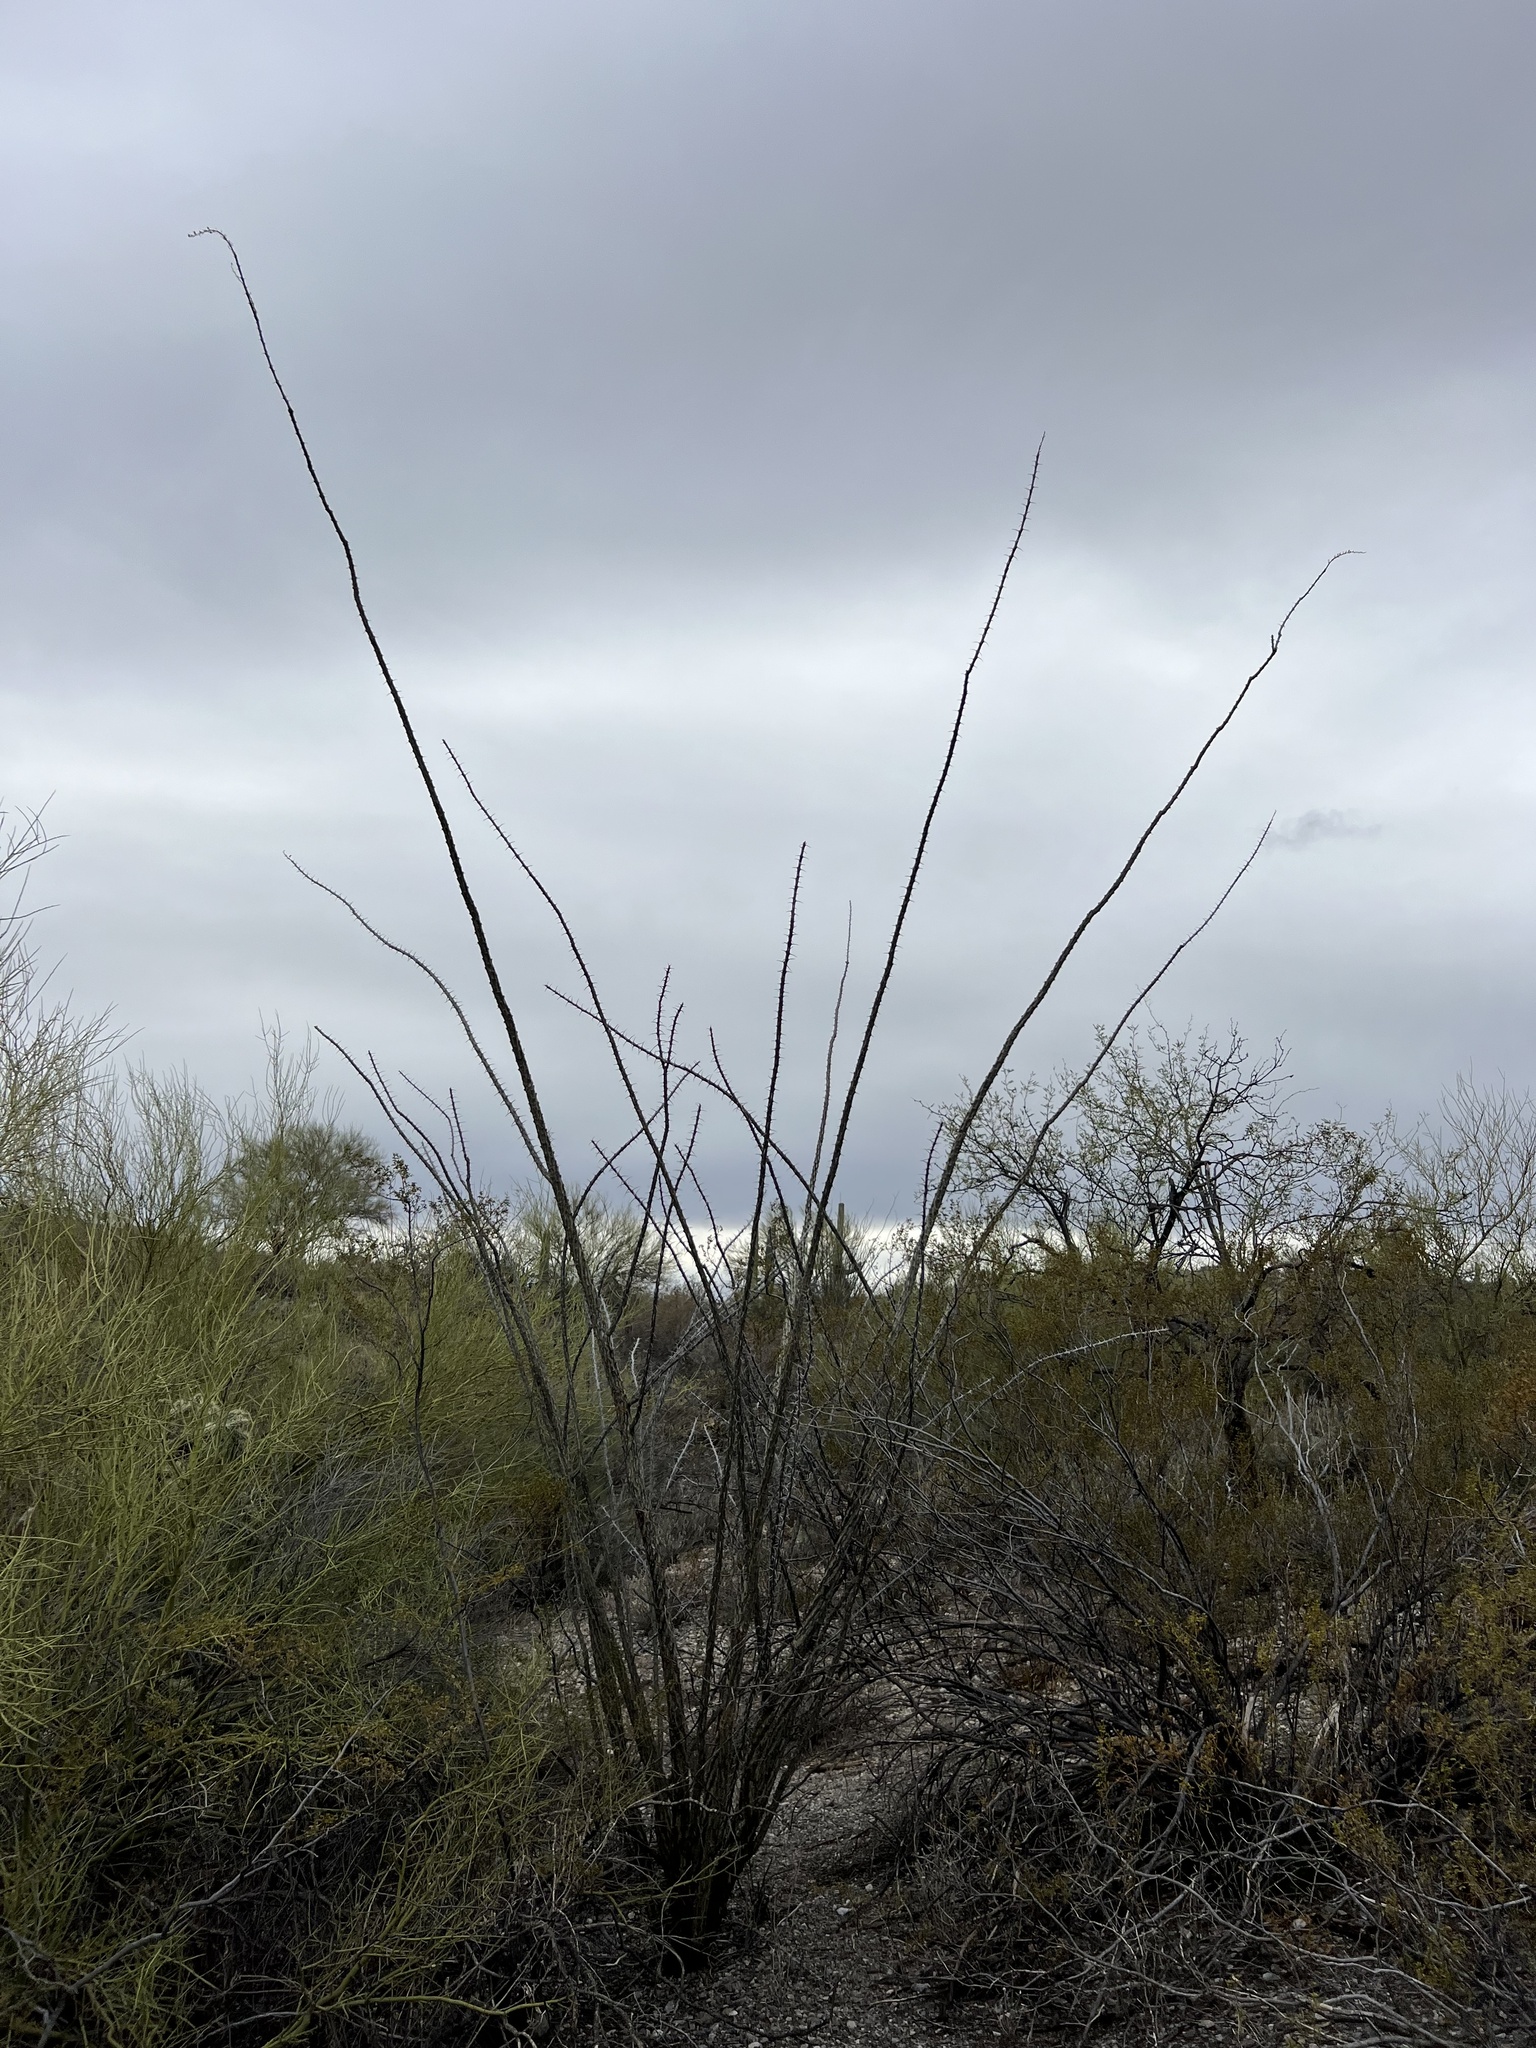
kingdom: Plantae
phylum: Tracheophyta
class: Magnoliopsida
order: Ericales
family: Fouquieriaceae
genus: Fouquieria
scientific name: Fouquieria splendens
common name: Vine-cactus
